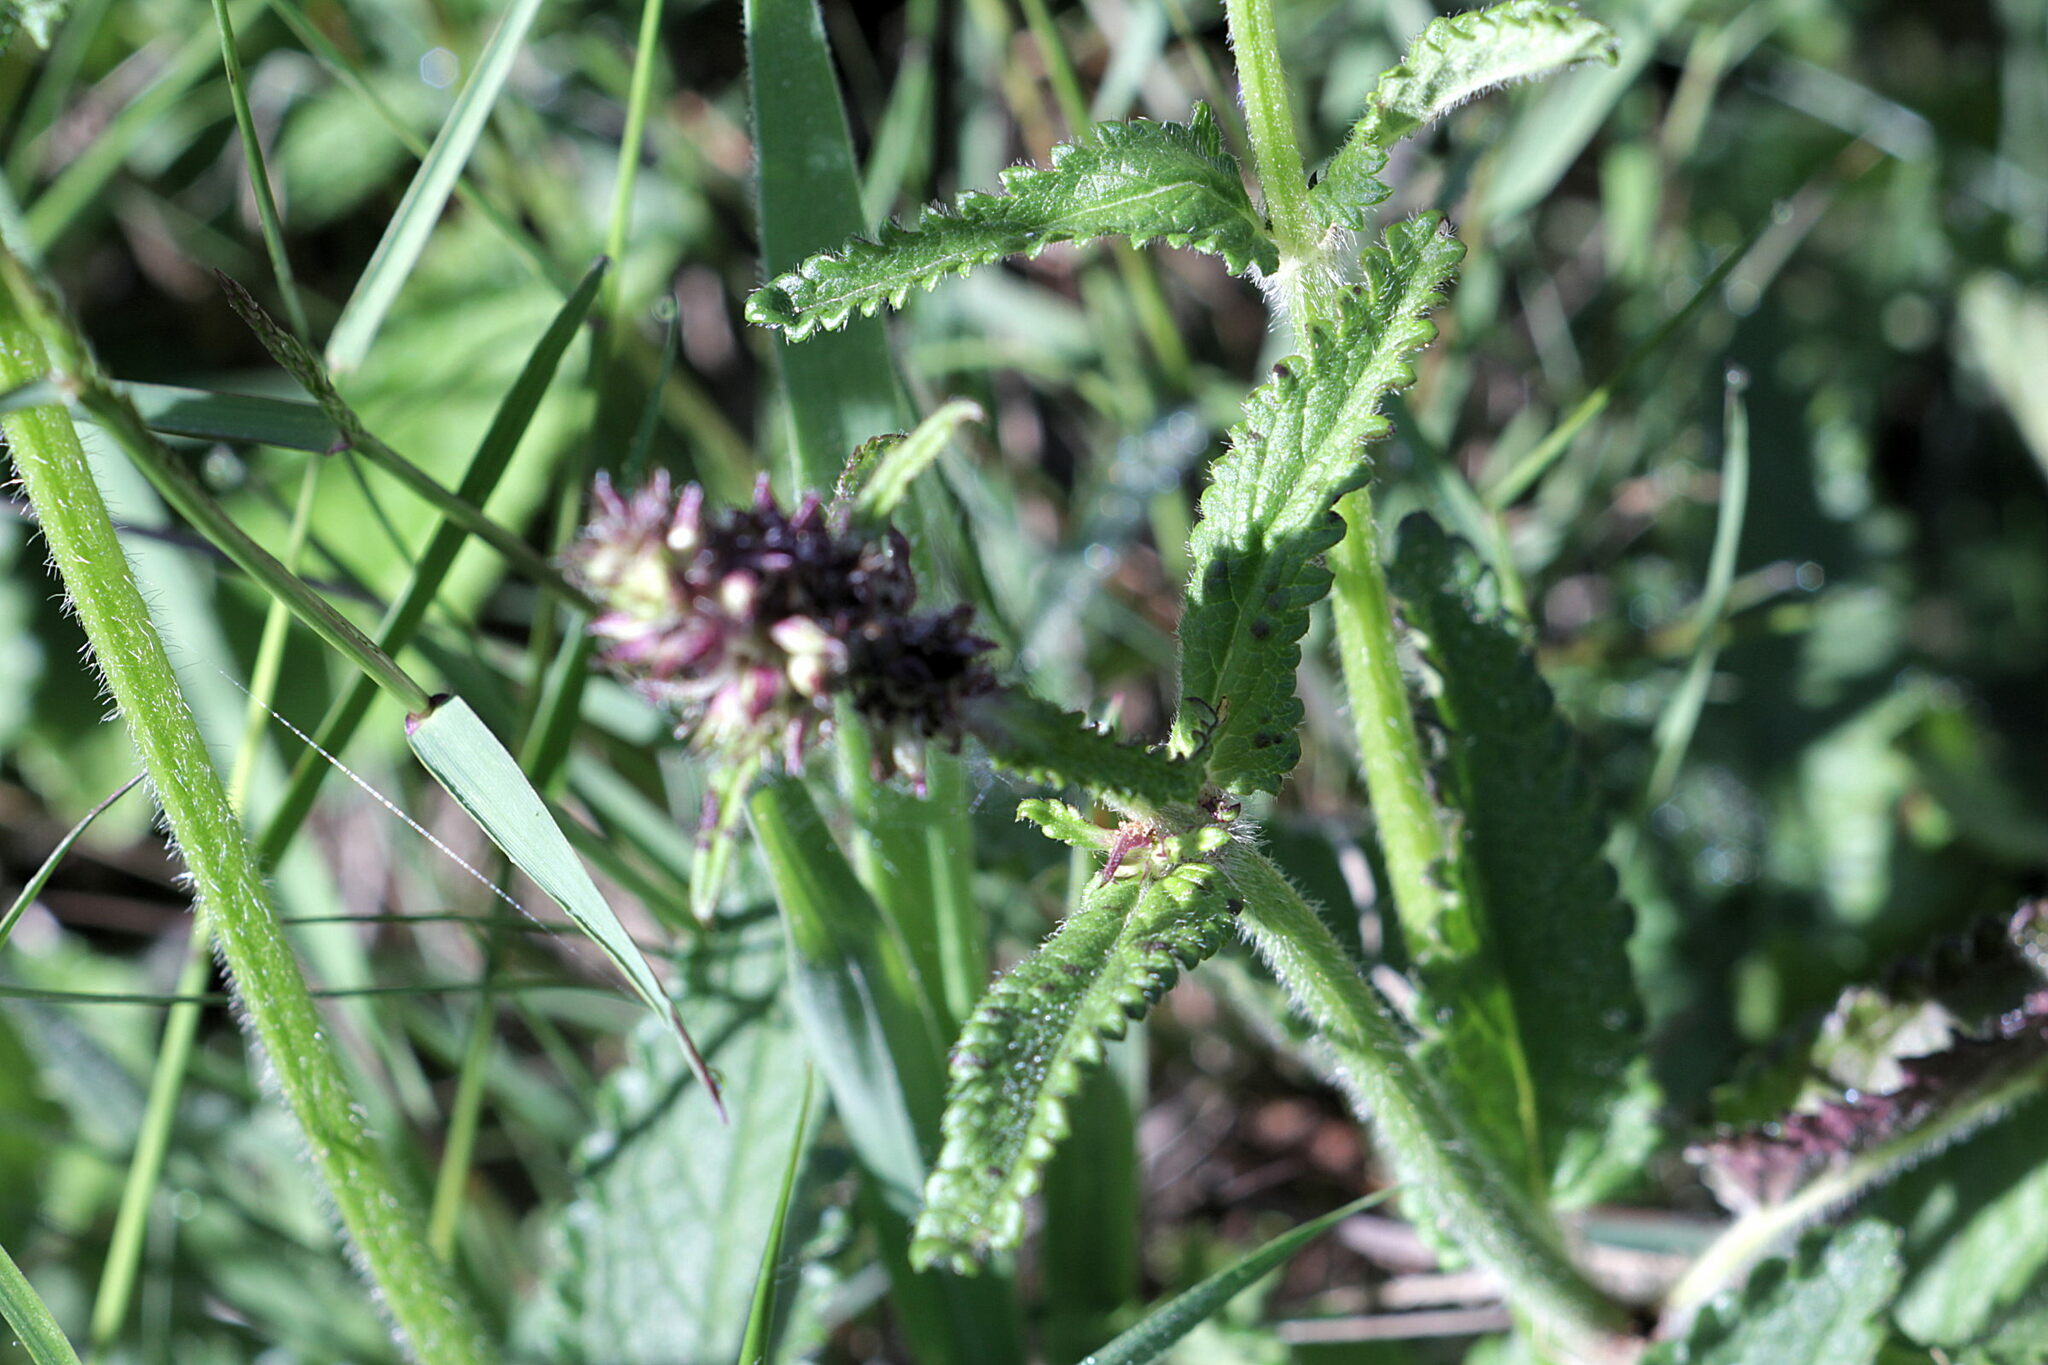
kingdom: Plantae
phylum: Tracheophyta
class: Magnoliopsida
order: Lamiales
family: Lamiaceae
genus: Betonica
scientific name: Betonica officinalis
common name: Bishop's-wort
